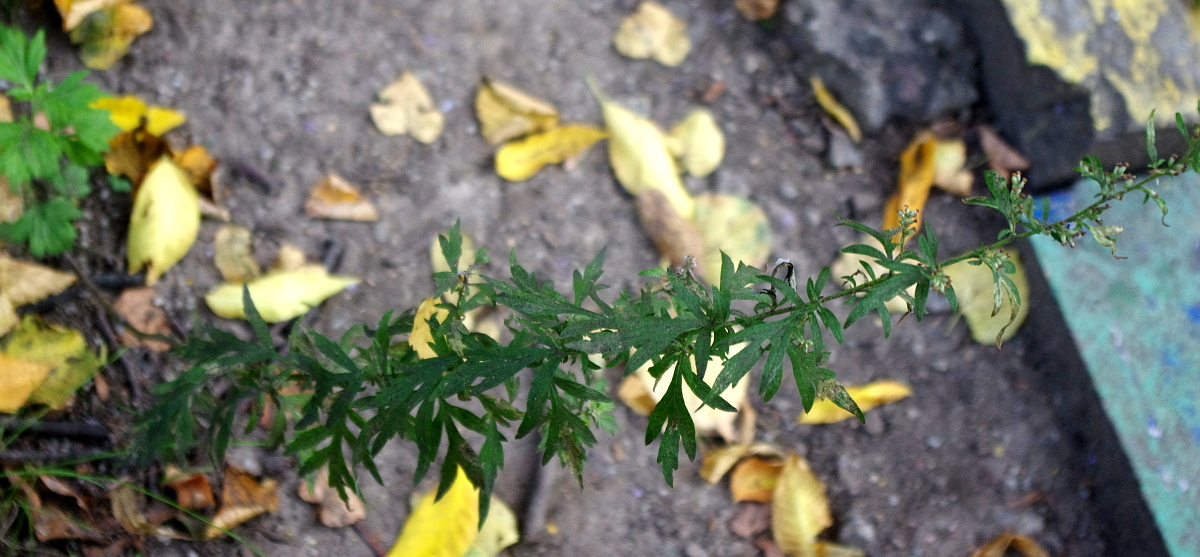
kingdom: Plantae
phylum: Tracheophyta
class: Magnoliopsida
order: Asterales
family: Asteraceae
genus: Artemisia
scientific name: Artemisia vulgaris
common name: Mugwort
